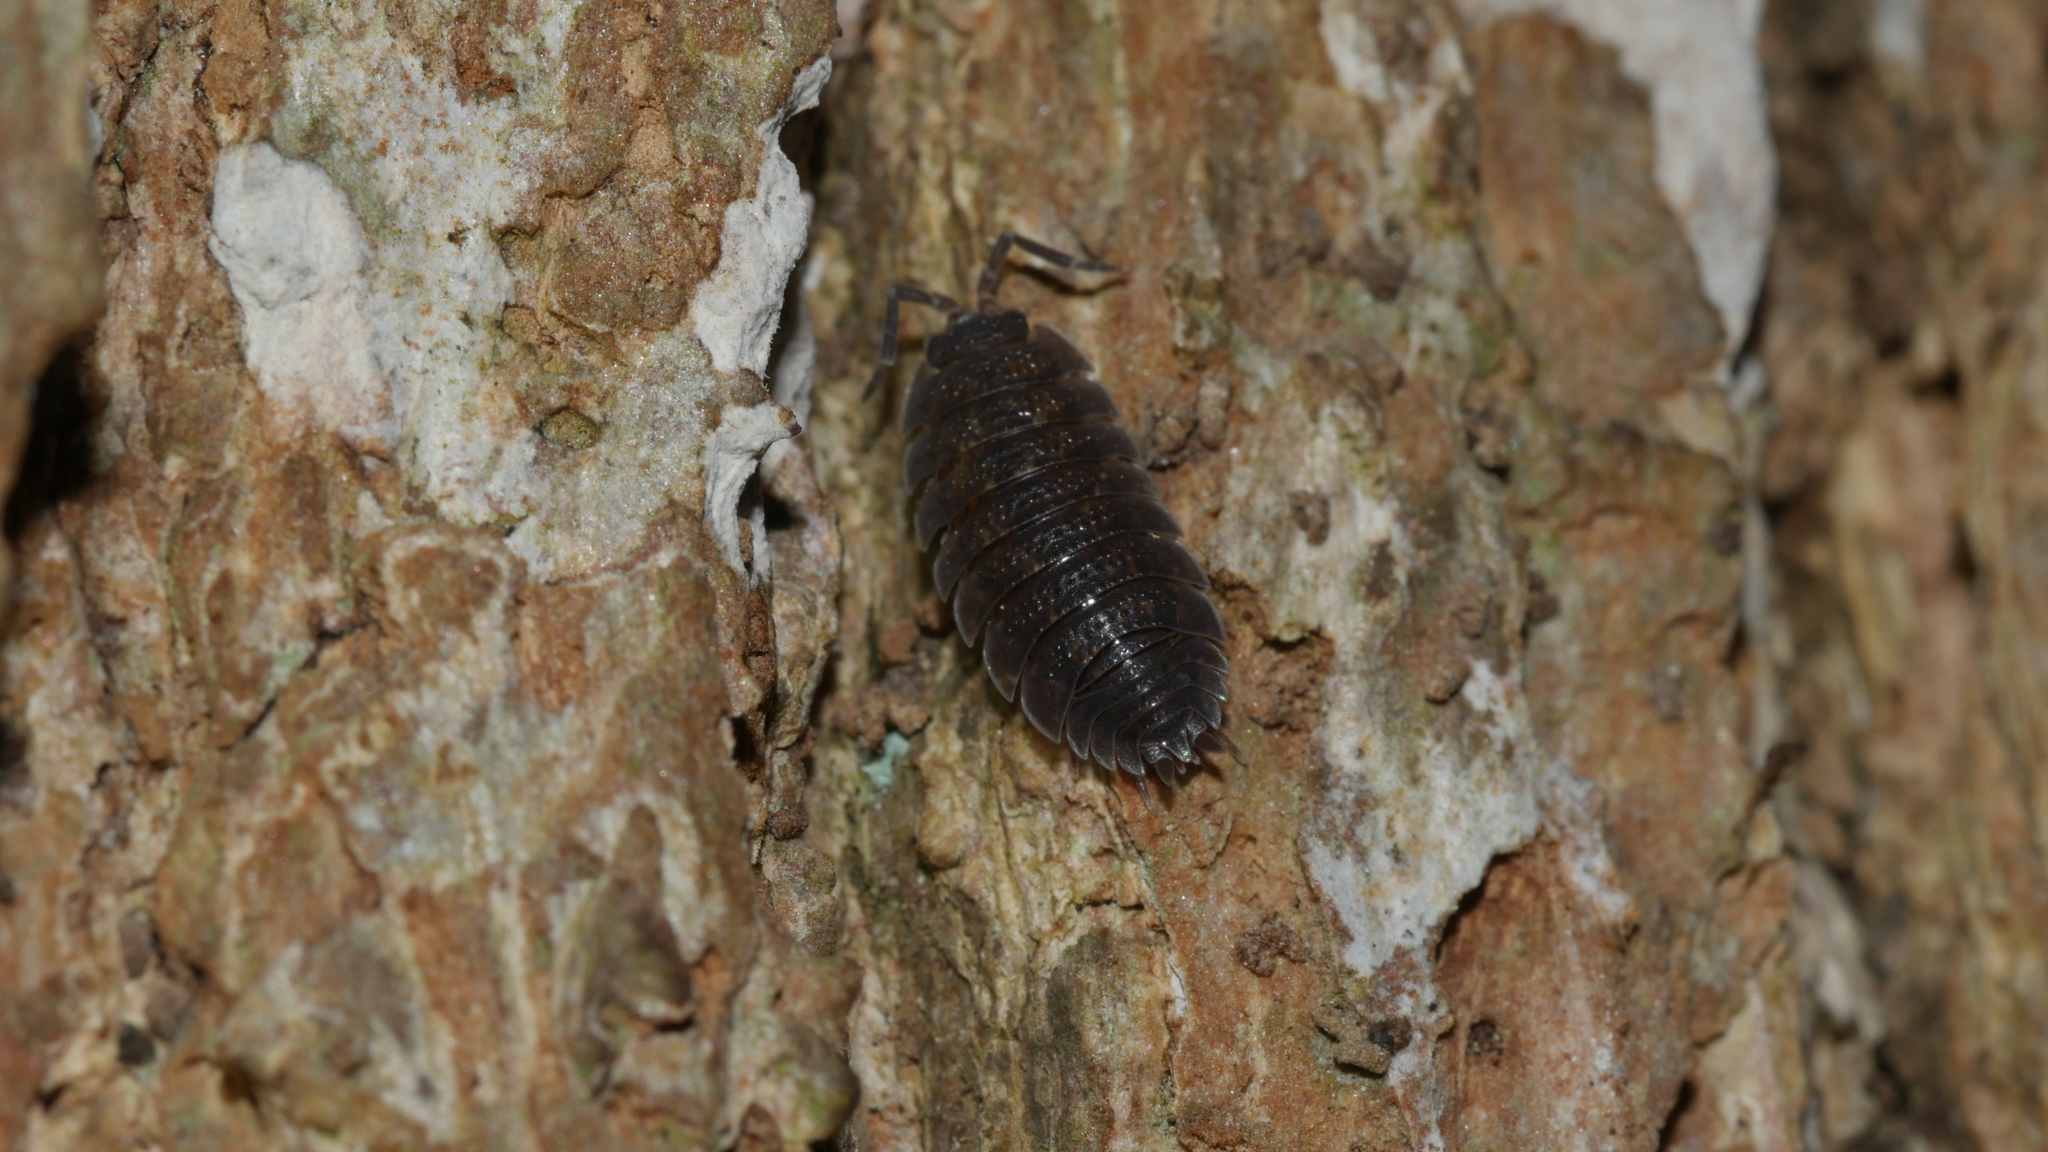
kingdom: Animalia
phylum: Arthropoda
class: Malacostraca
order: Isopoda
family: Porcellionidae
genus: Porcellio
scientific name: Porcellio scaber
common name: Common rough woodlouse
